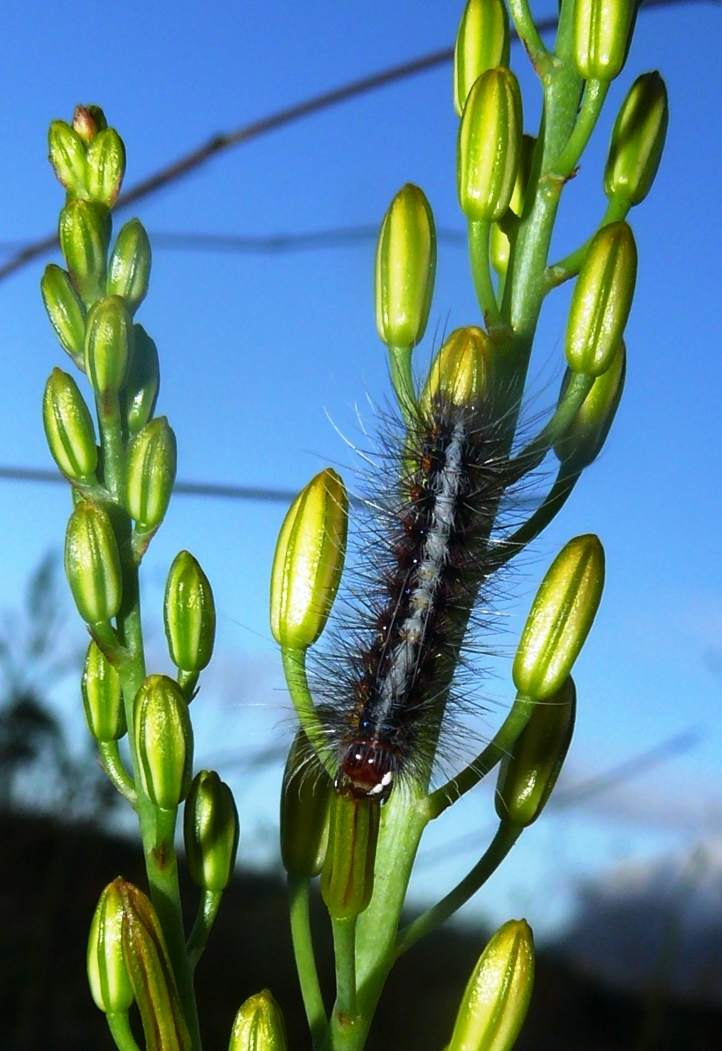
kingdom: Animalia
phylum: Arthropoda
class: Insecta
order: Lepidoptera
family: Erebidae
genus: Paralacydes
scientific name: Paralacydes vocula
